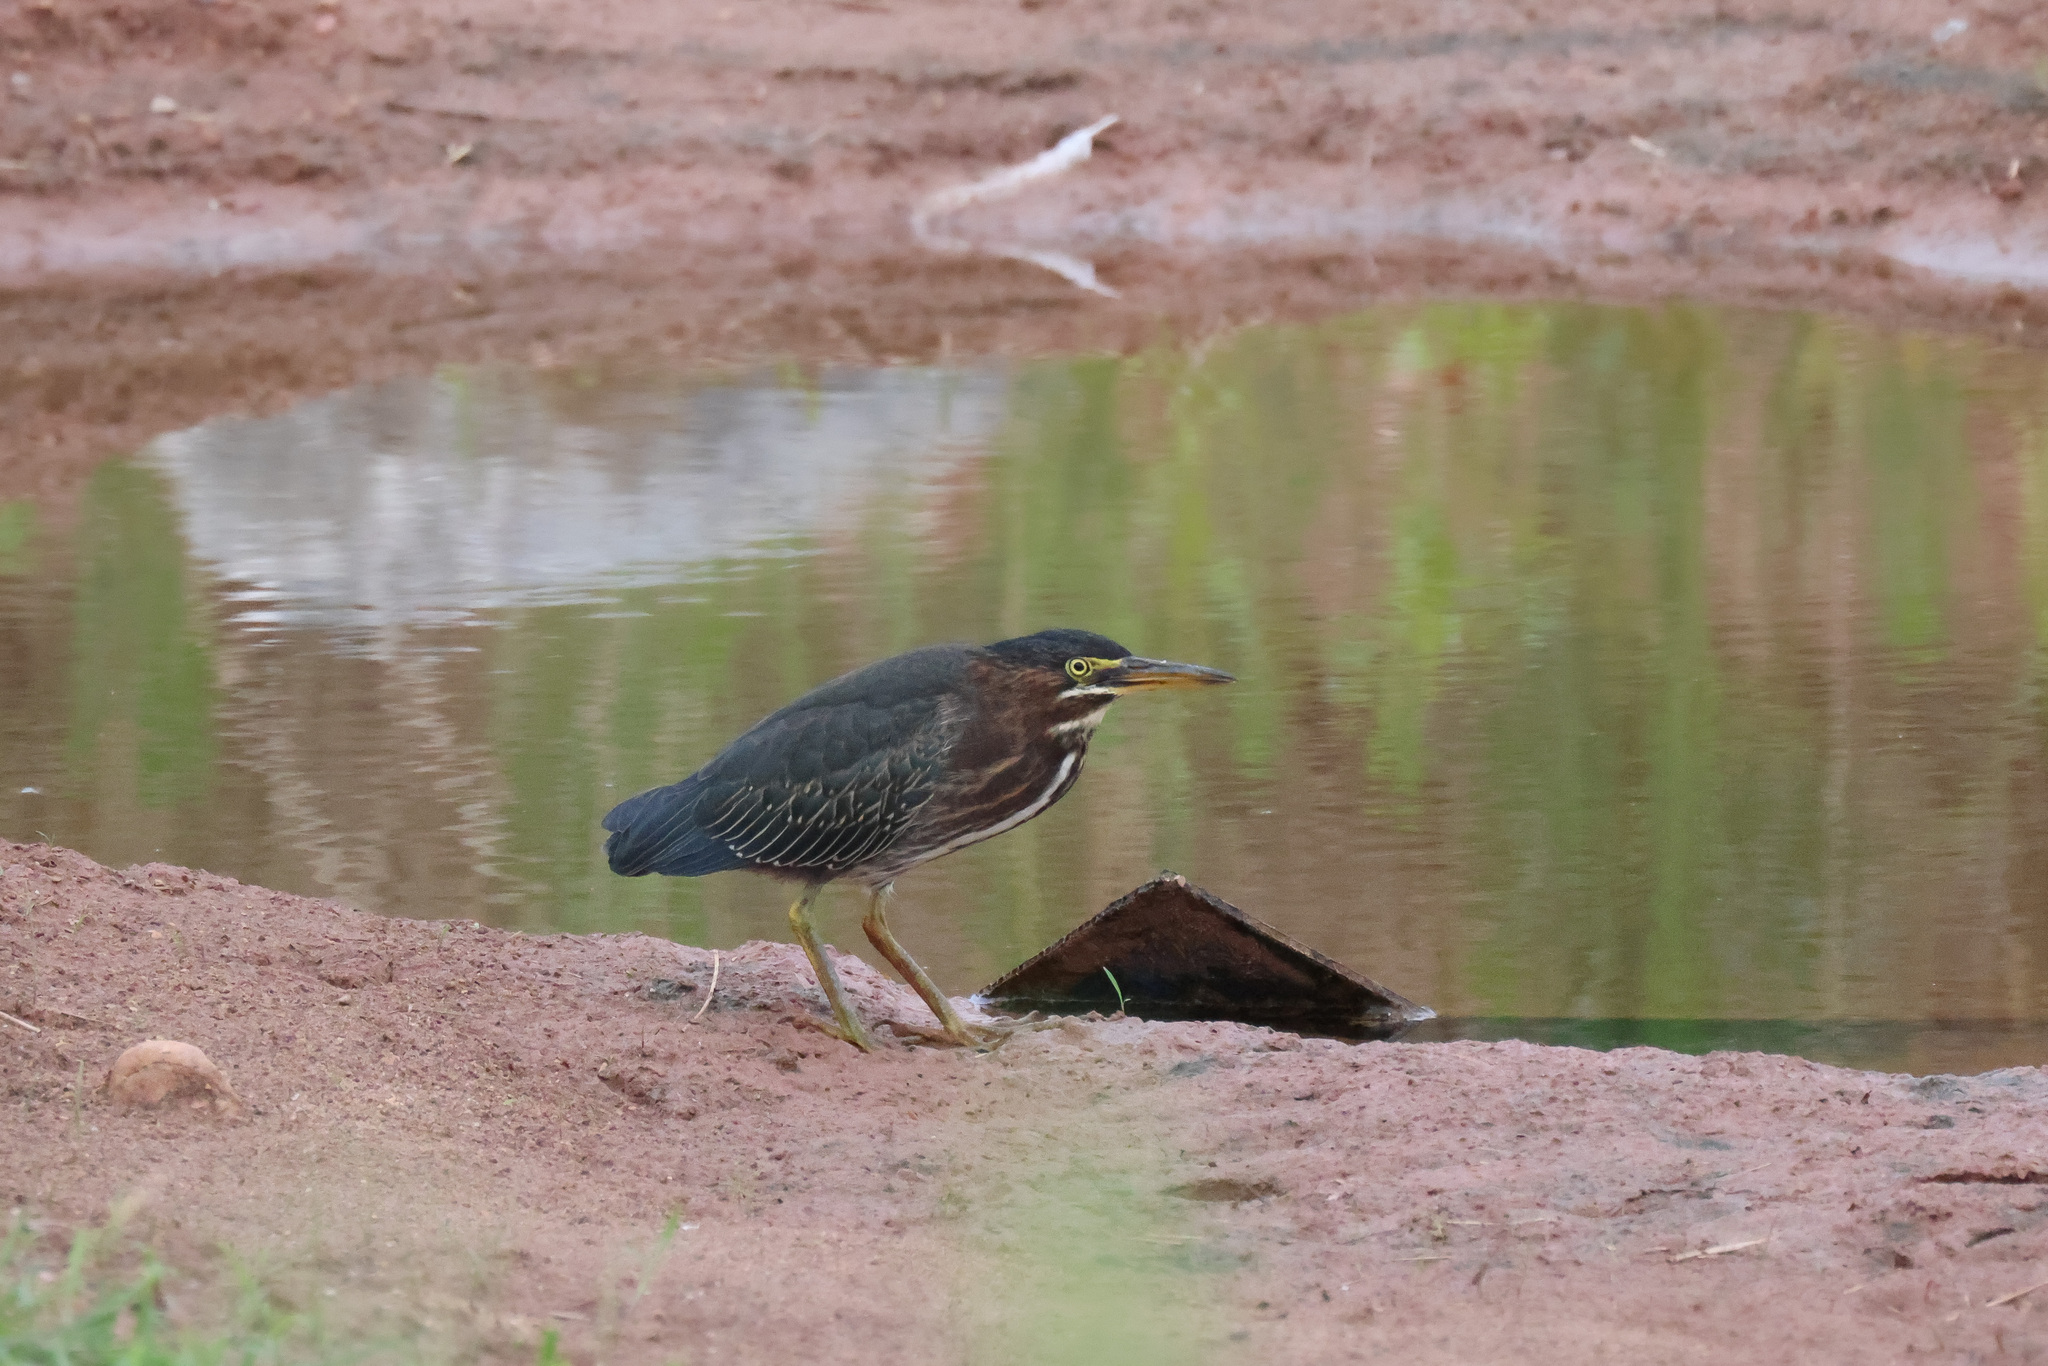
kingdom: Animalia
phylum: Chordata
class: Aves
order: Pelecaniformes
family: Ardeidae
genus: Butorides
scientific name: Butorides virescens
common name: Green heron
